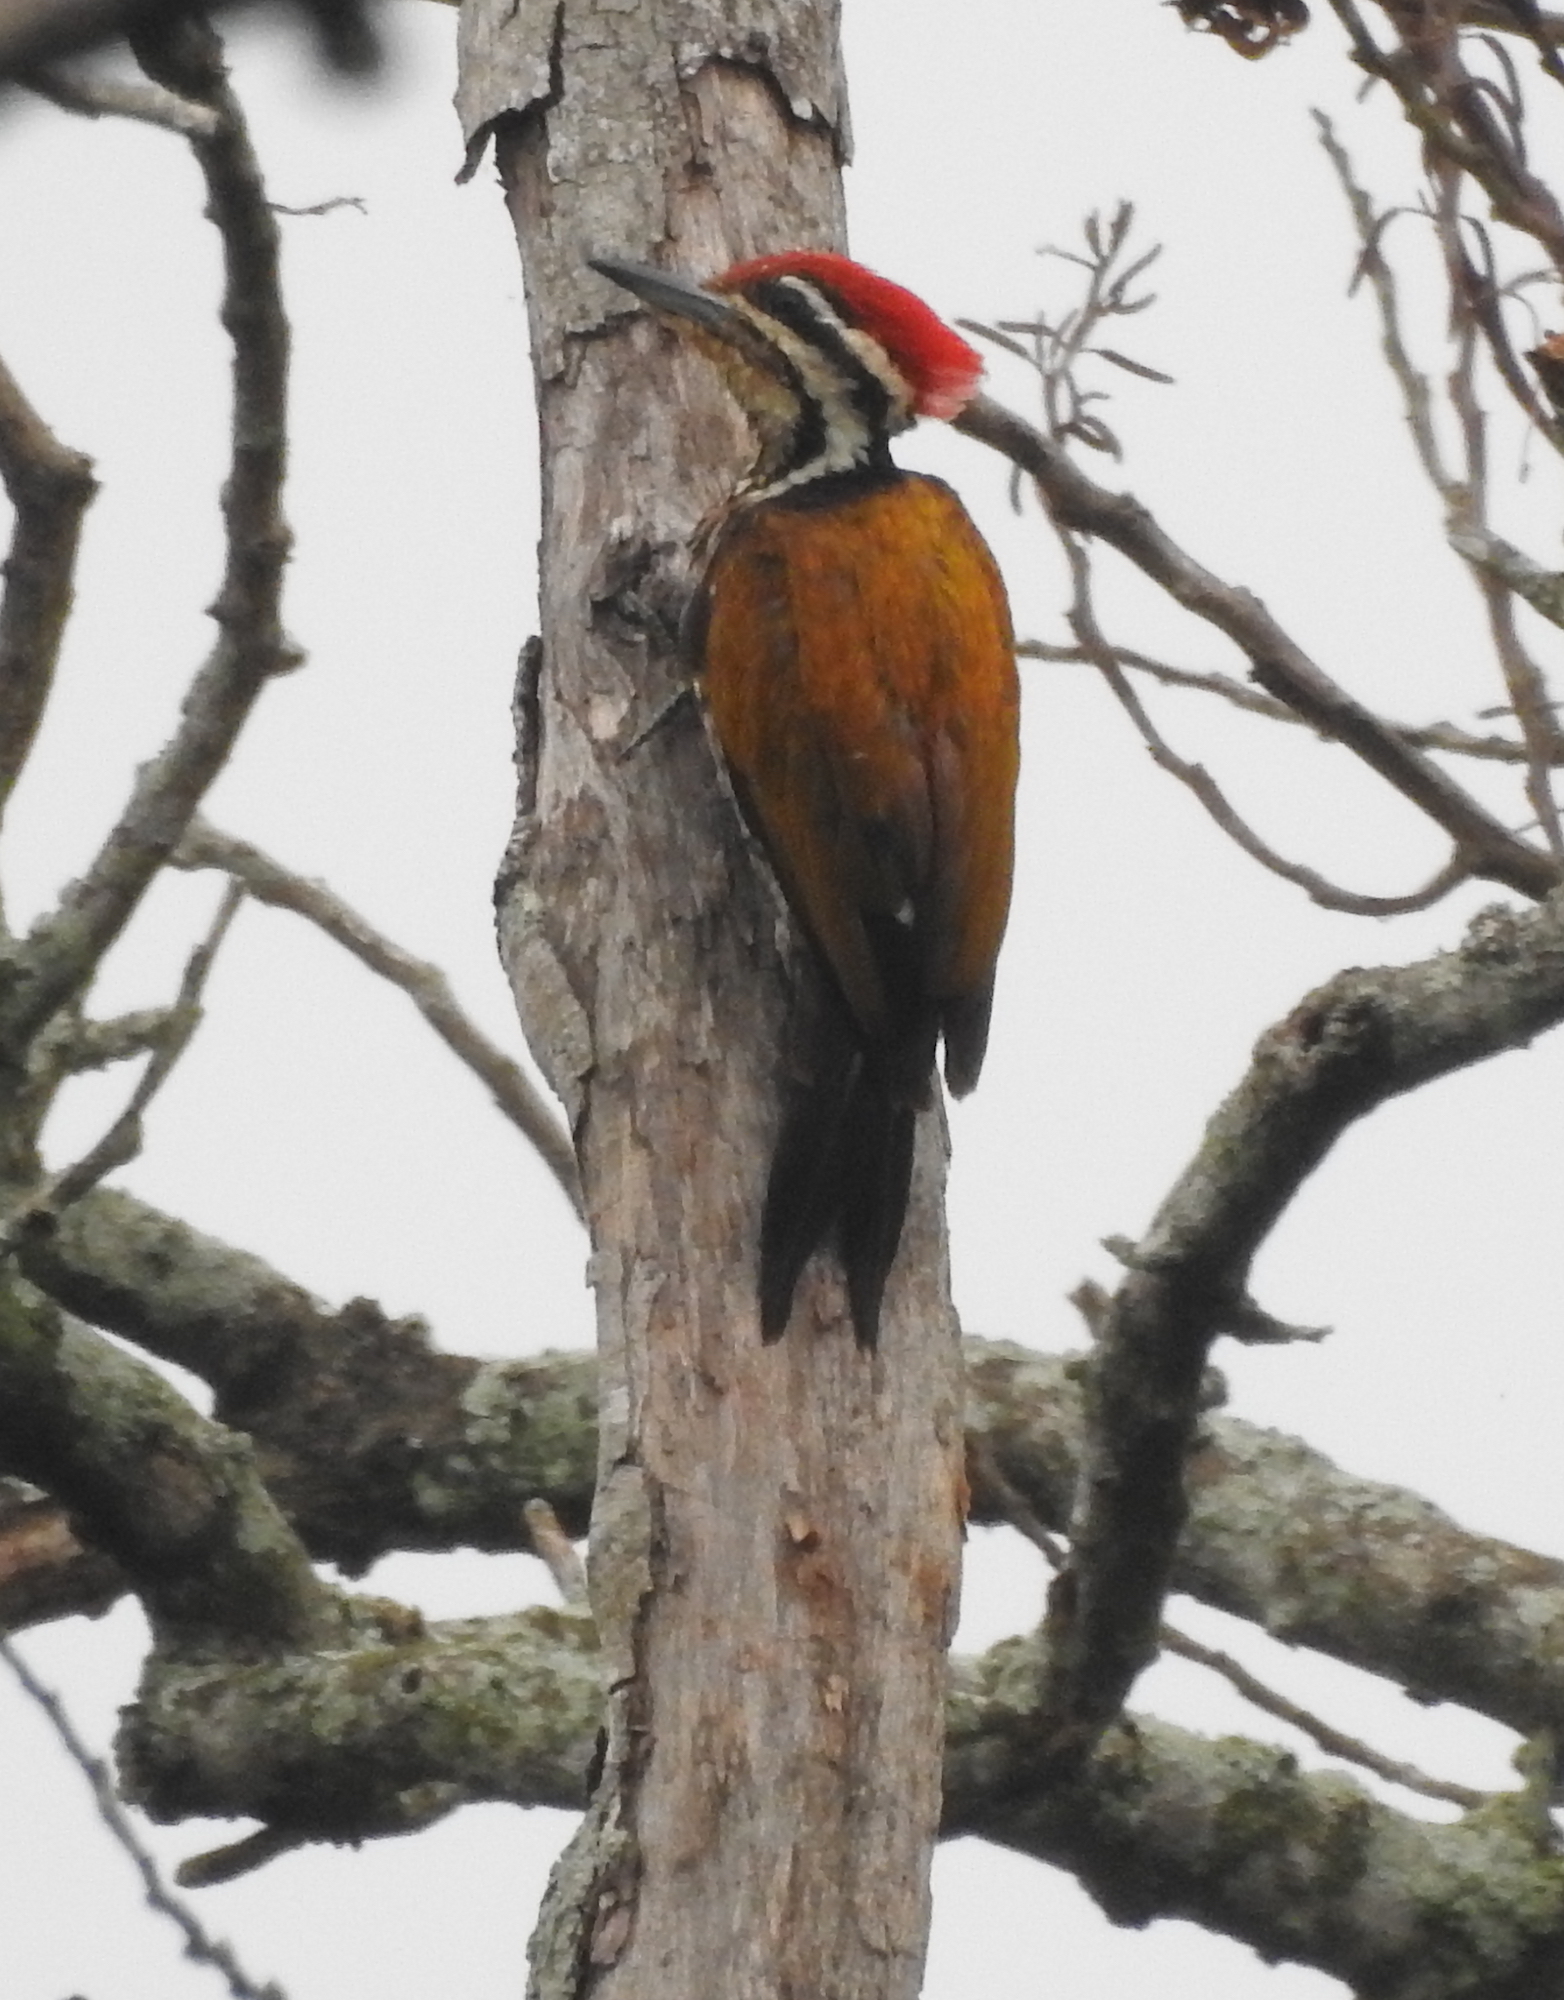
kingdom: Animalia
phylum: Chordata
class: Aves
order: Piciformes
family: Picidae
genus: Dinopium
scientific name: Dinopium javanense
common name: Common flameback
